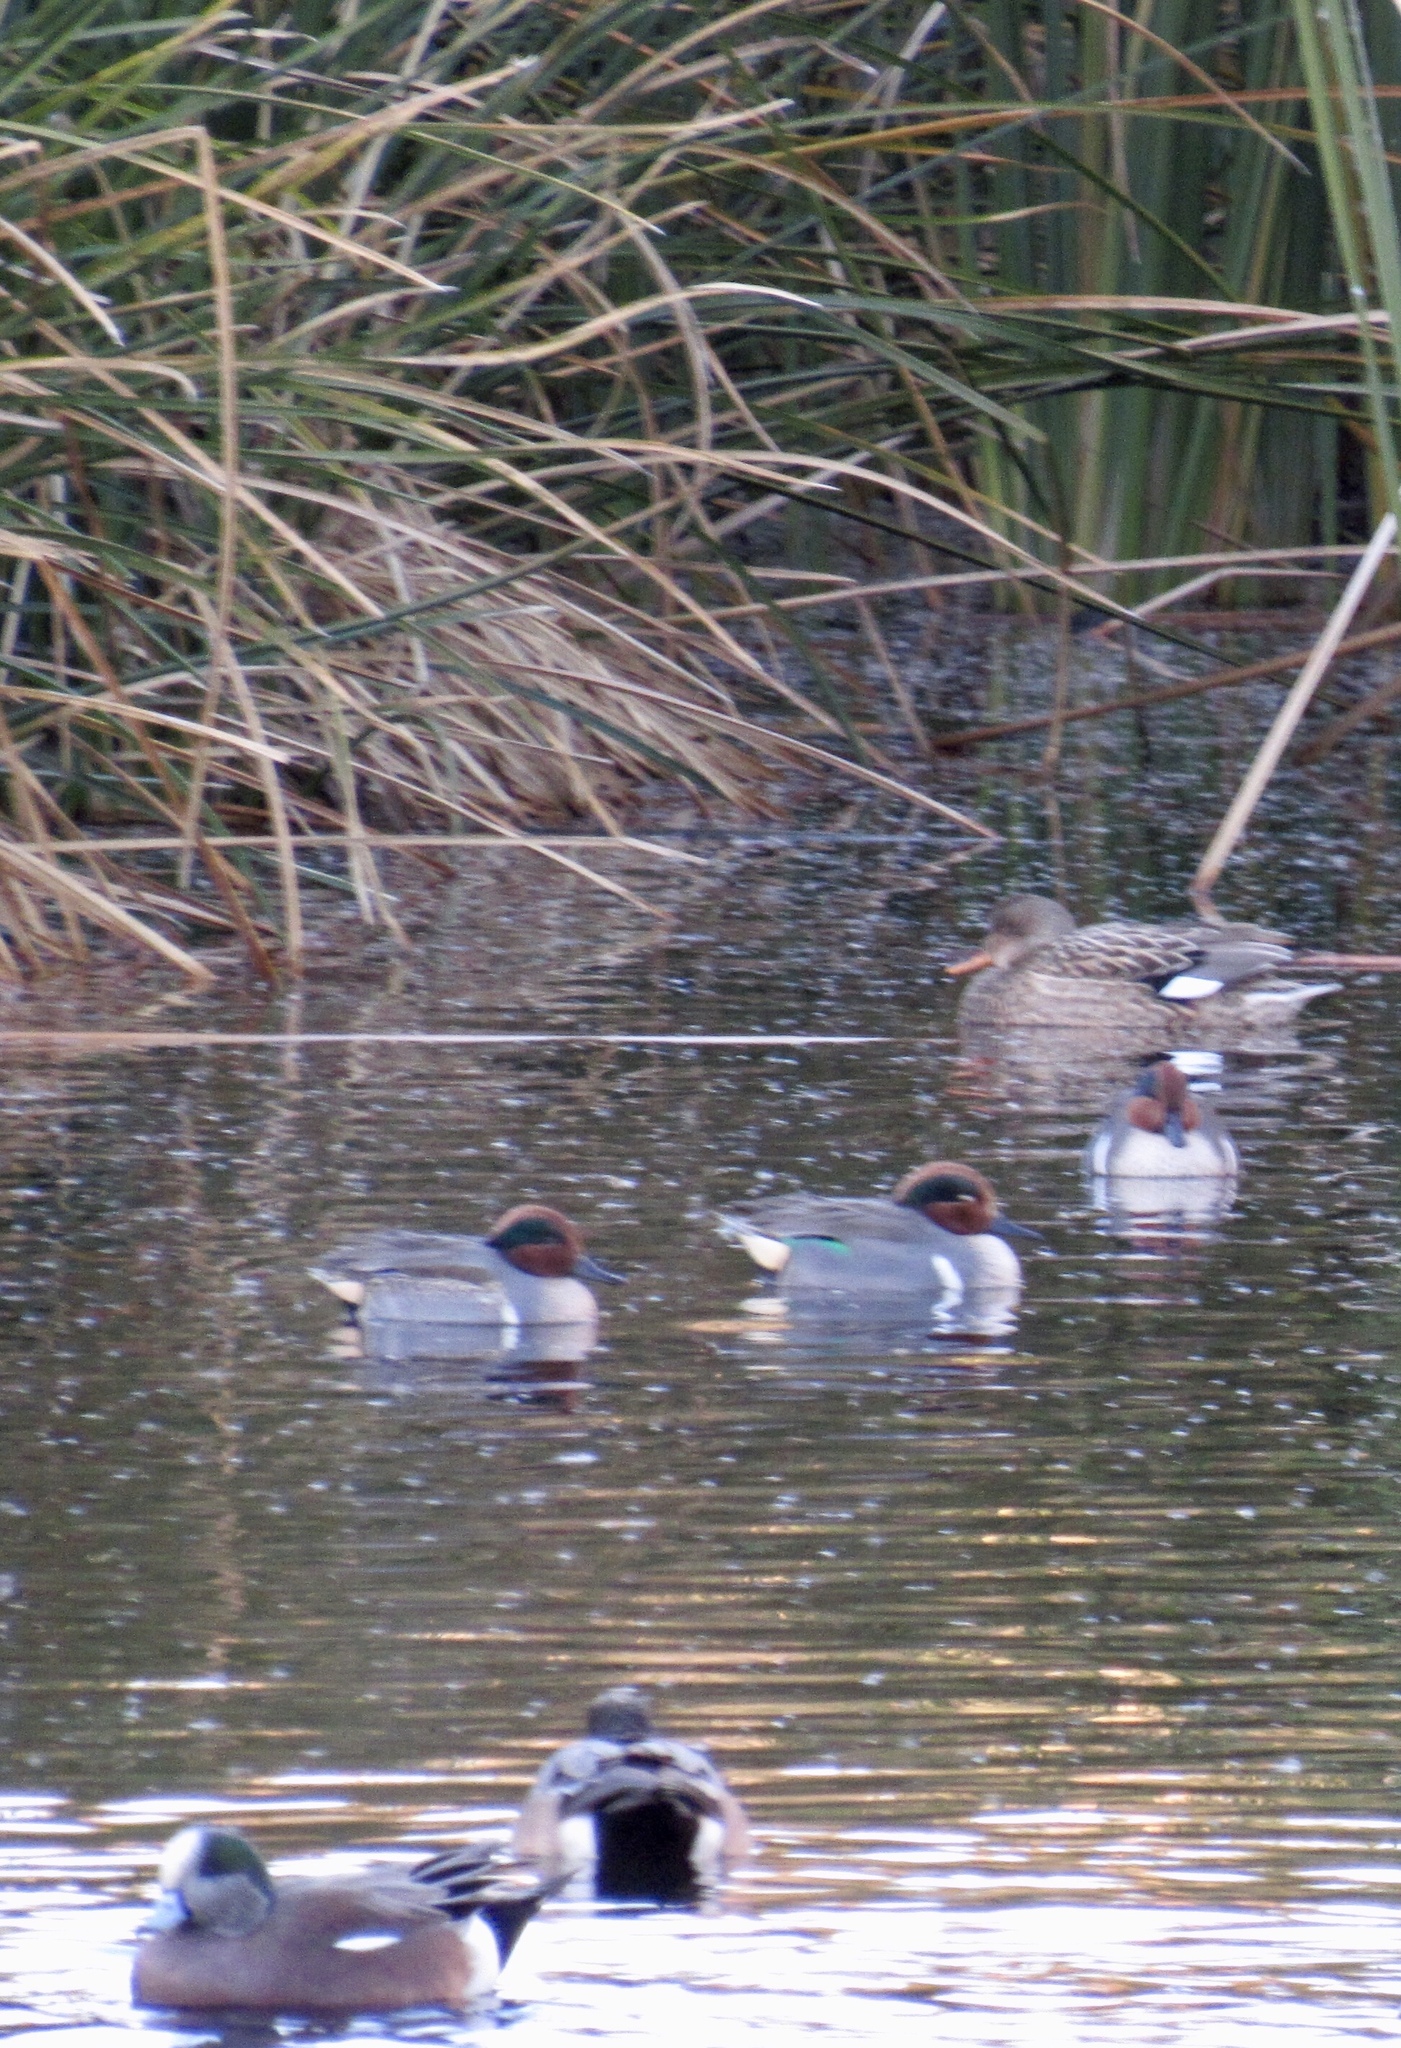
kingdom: Animalia
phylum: Chordata
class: Aves
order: Anseriformes
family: Anatidae
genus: Anas
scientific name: Anas crecca
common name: Eurasian teal
